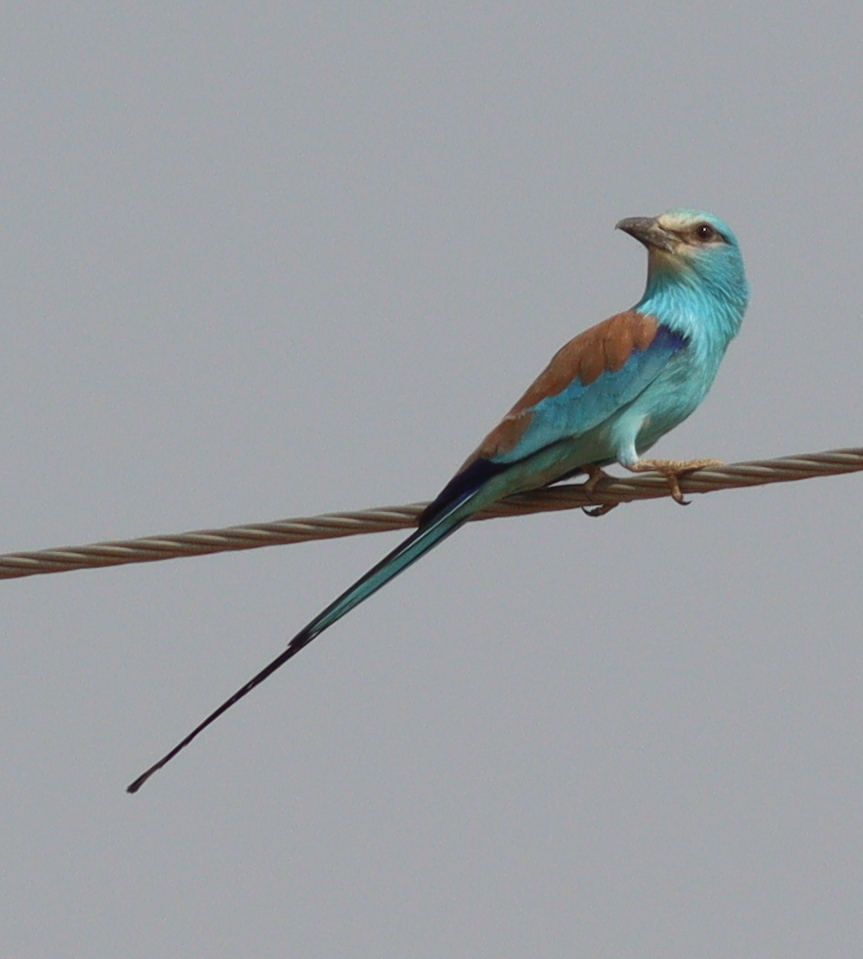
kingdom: Animalia
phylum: Chordata
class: Aves
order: Coraciiformes
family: Coraciidae
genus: Coracias
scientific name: Coracias abyssinicus
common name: Abyssinian roller
